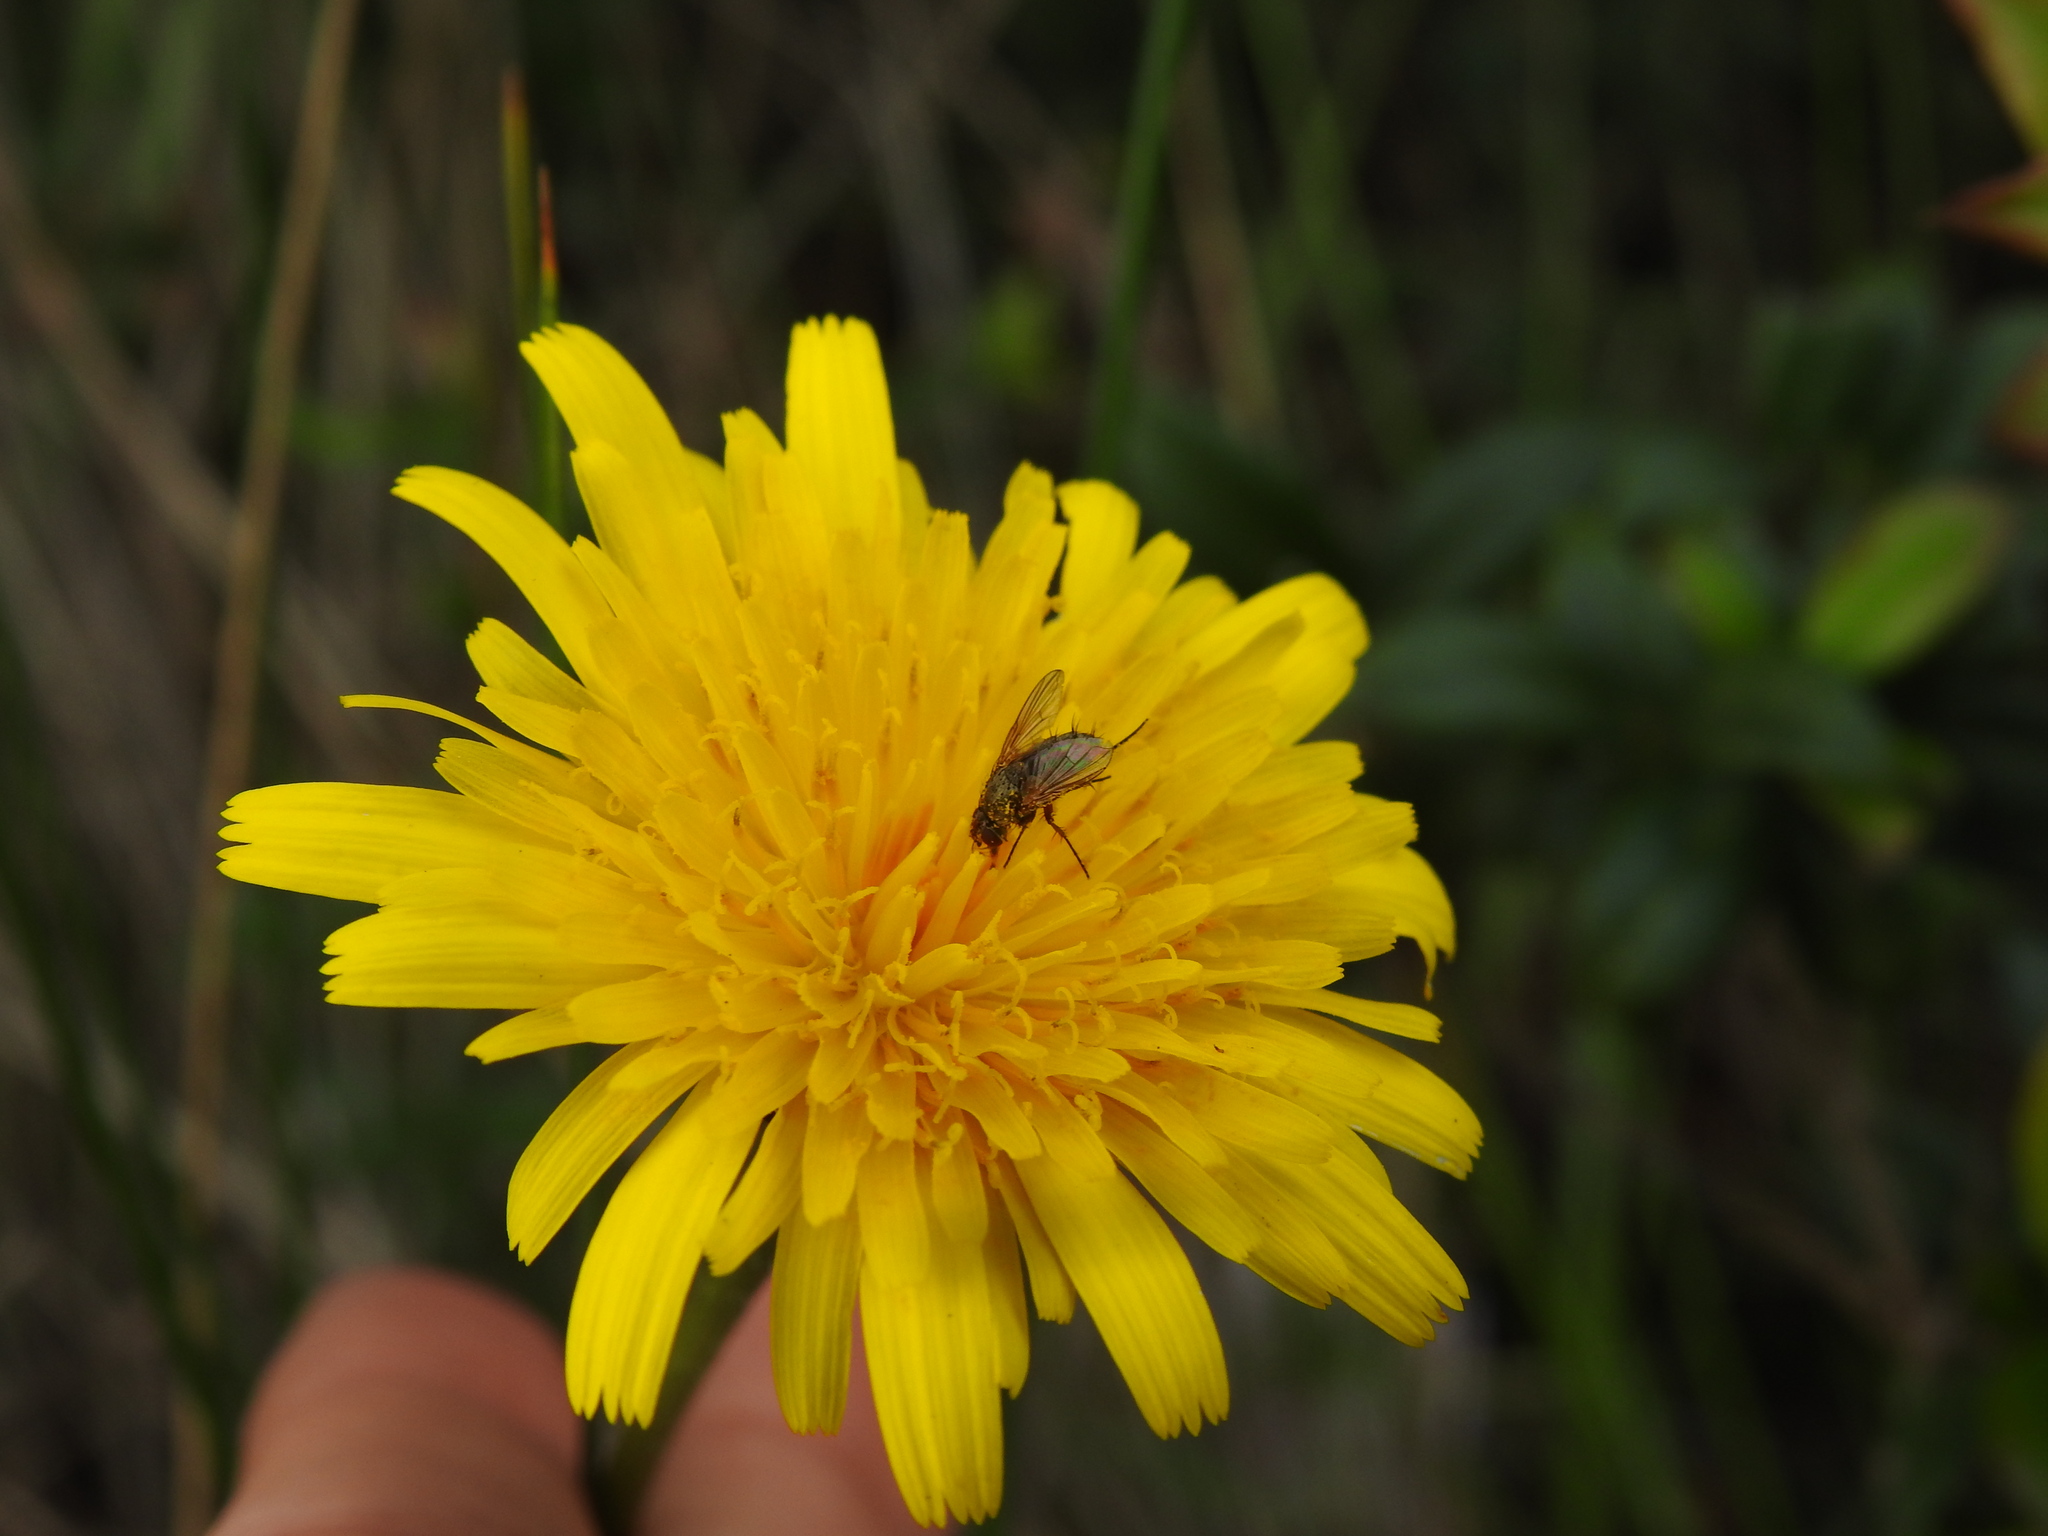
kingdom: Plantae
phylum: Tracheophyta
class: Magnoliopsida
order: Asterales
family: Asteraceae
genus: Leontodon
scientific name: Leontodon tuberosus
